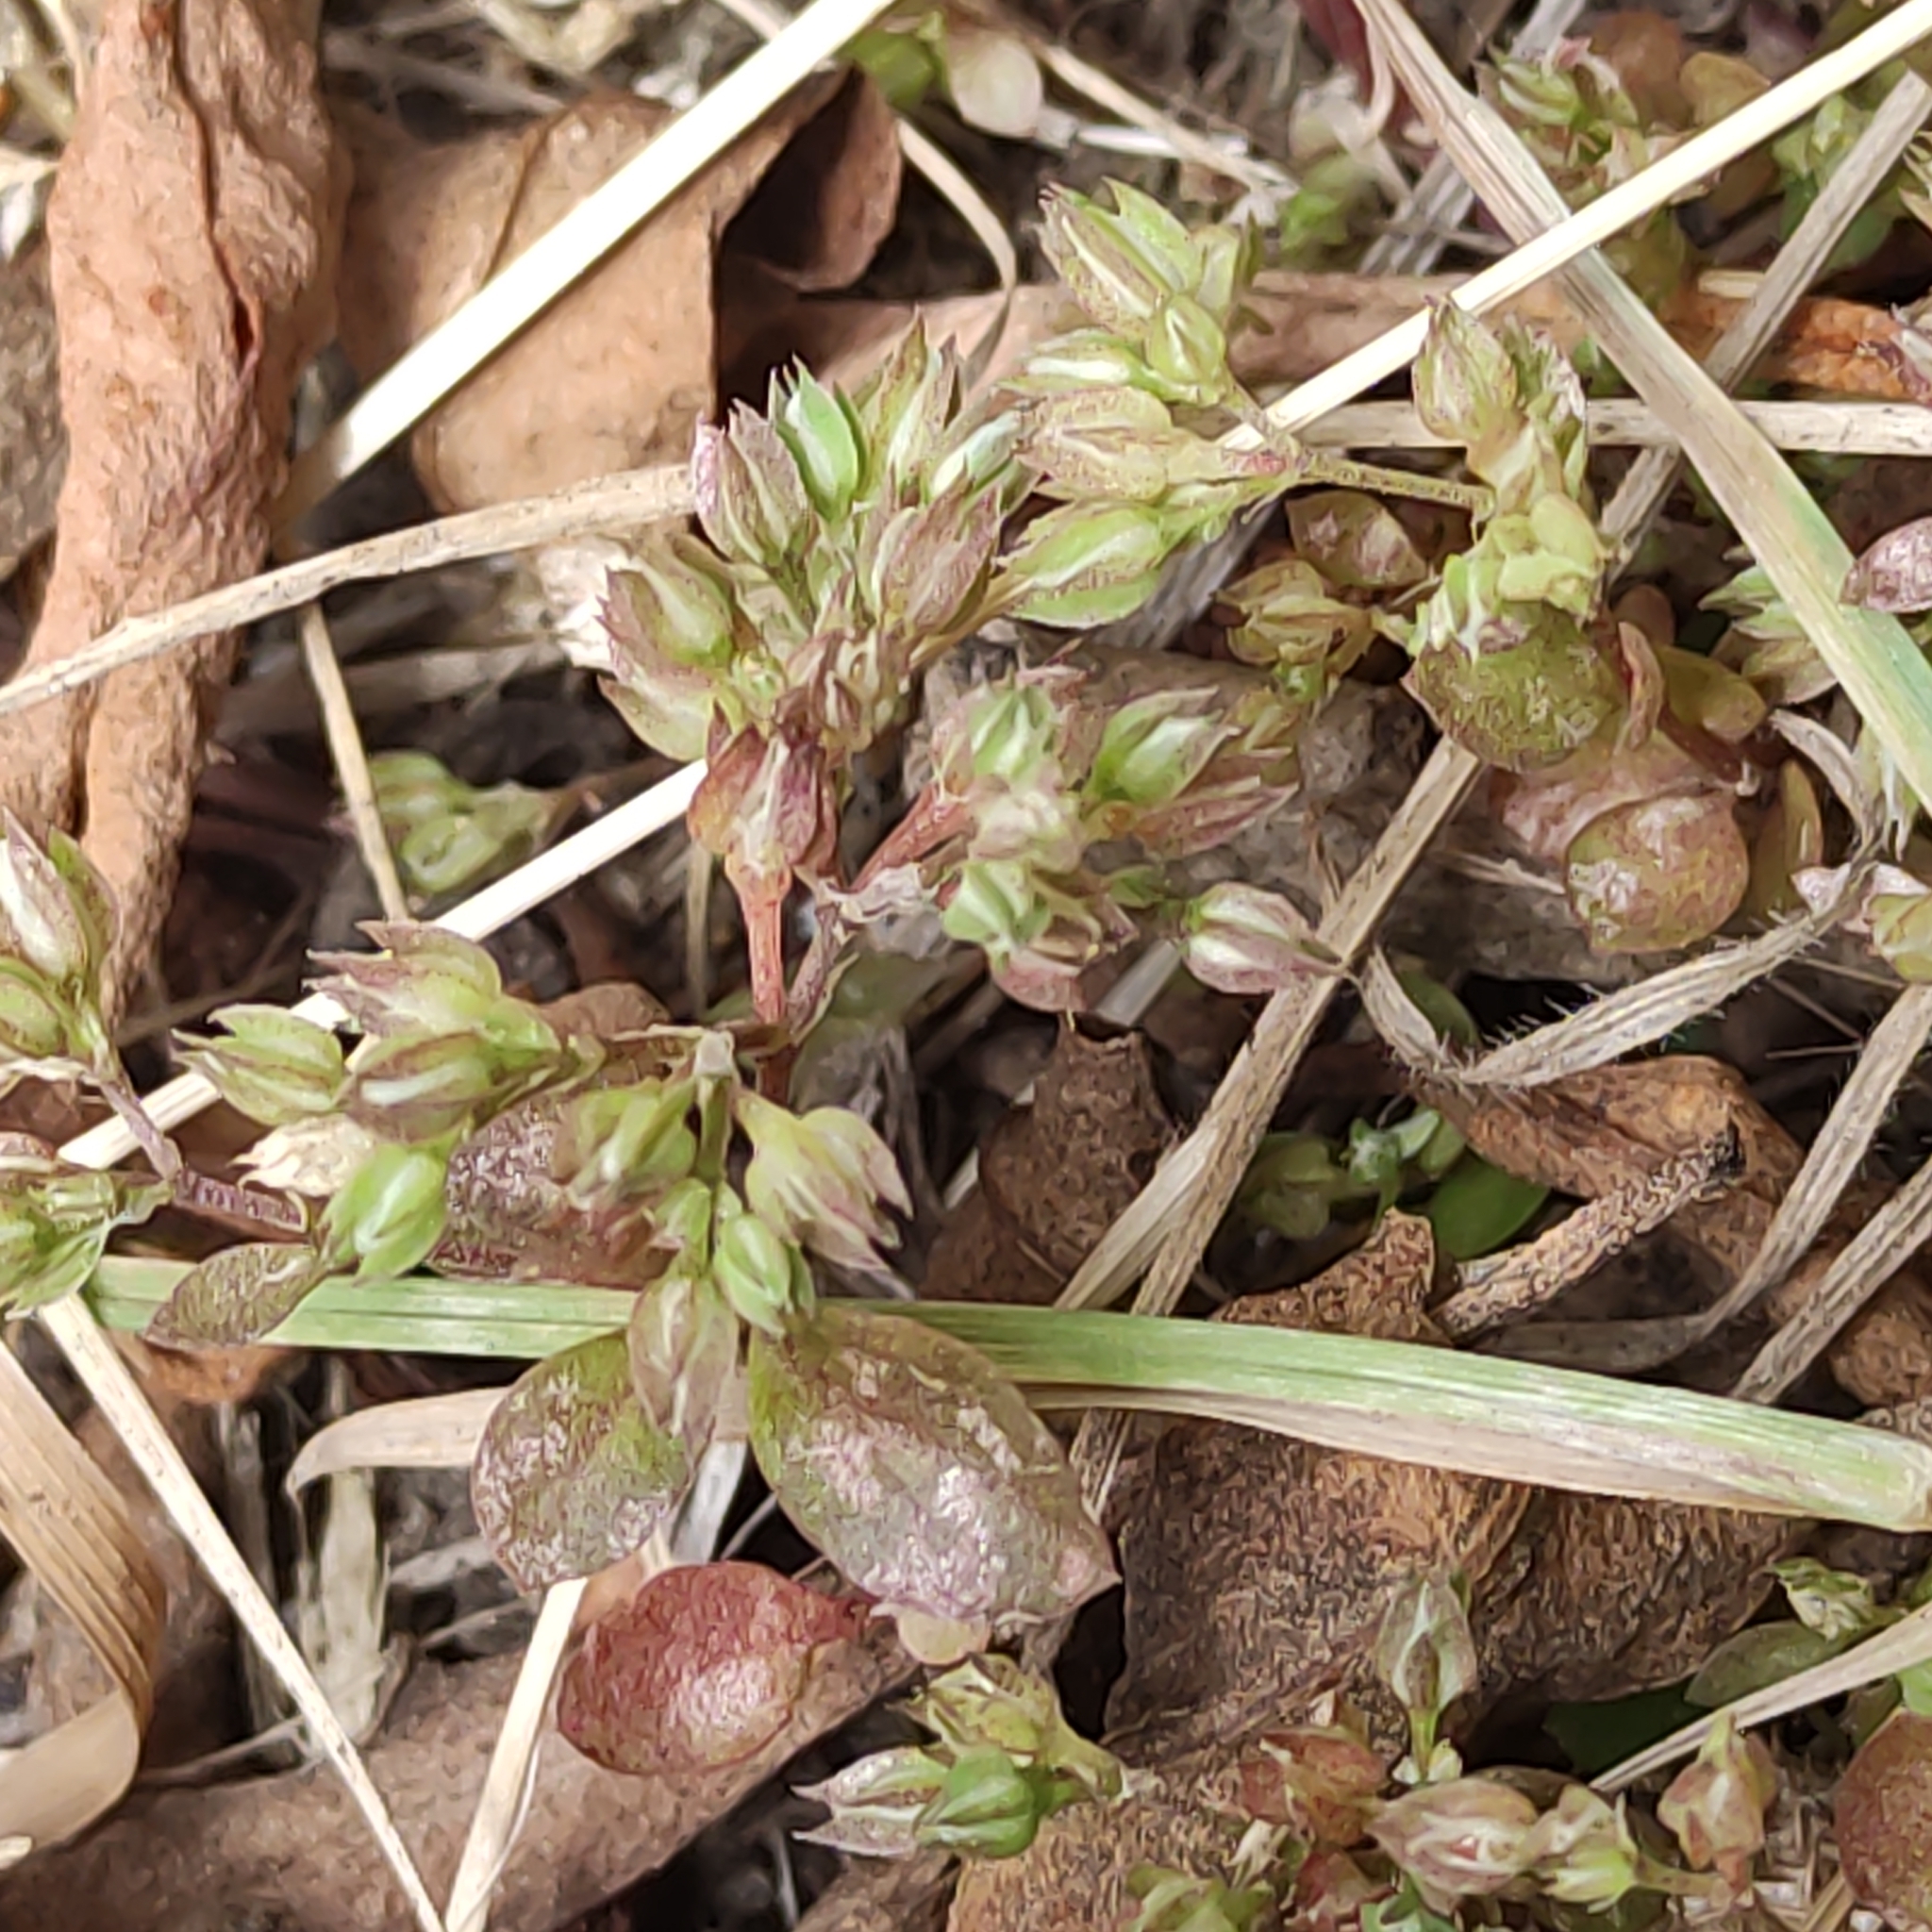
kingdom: Plantae
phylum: Tracheophyta
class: Magnoliopsida
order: Caryophyllales
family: Caryophyllaceae
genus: Polycarpon
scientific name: Polycarpon tetraphyllum
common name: Four-leaved all-seed
